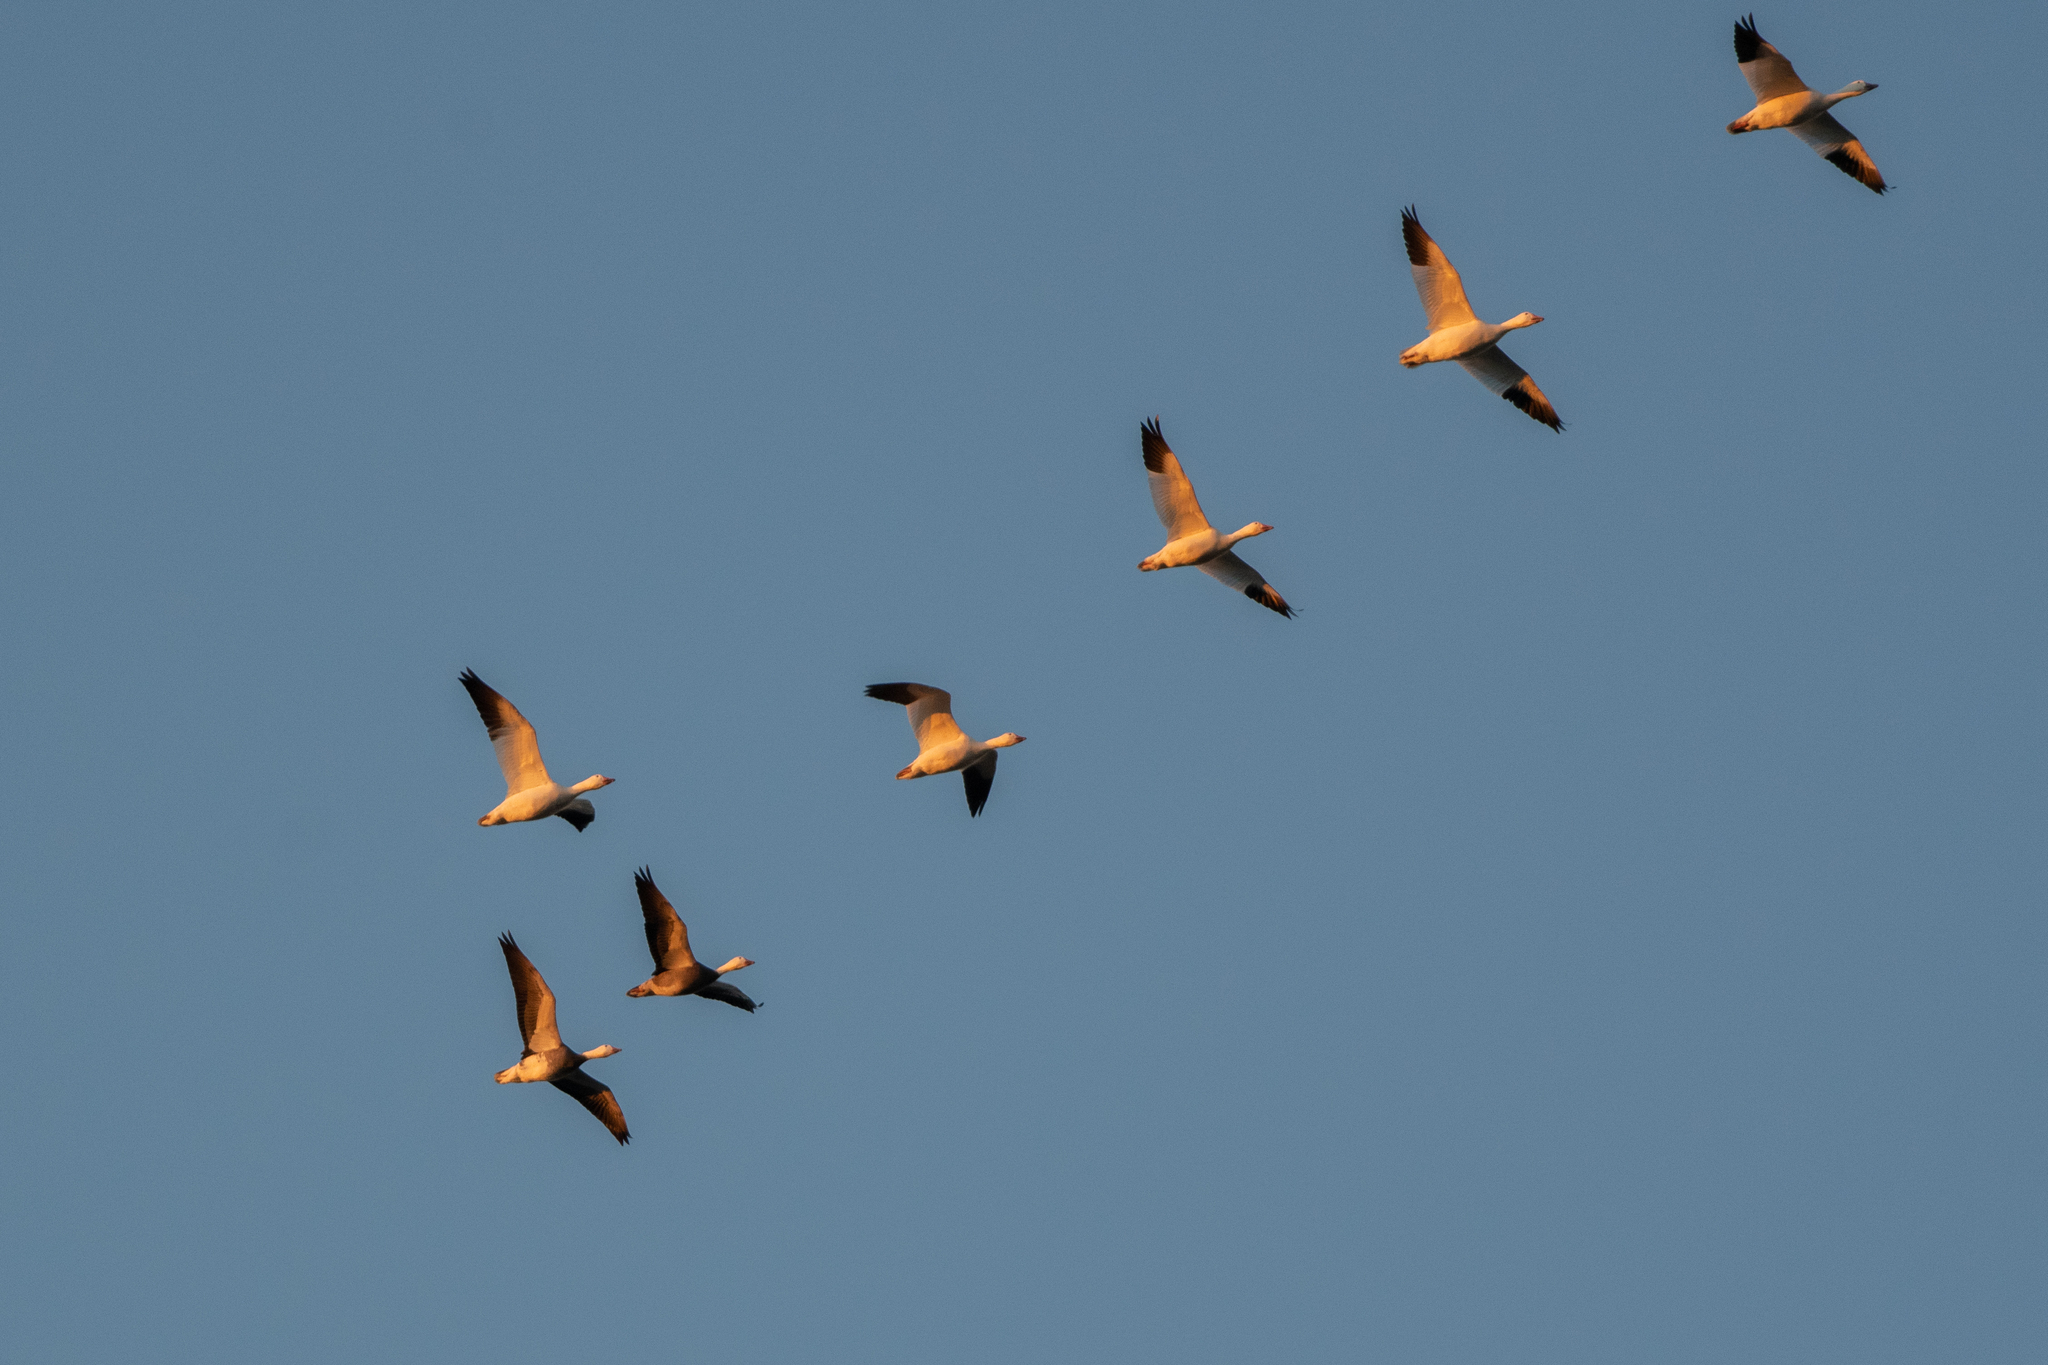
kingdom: Animalia
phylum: Chordata
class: Aves
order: Anseriformes
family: Anatidae
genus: Anser
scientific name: Anser caerulescens
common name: Snow goose
